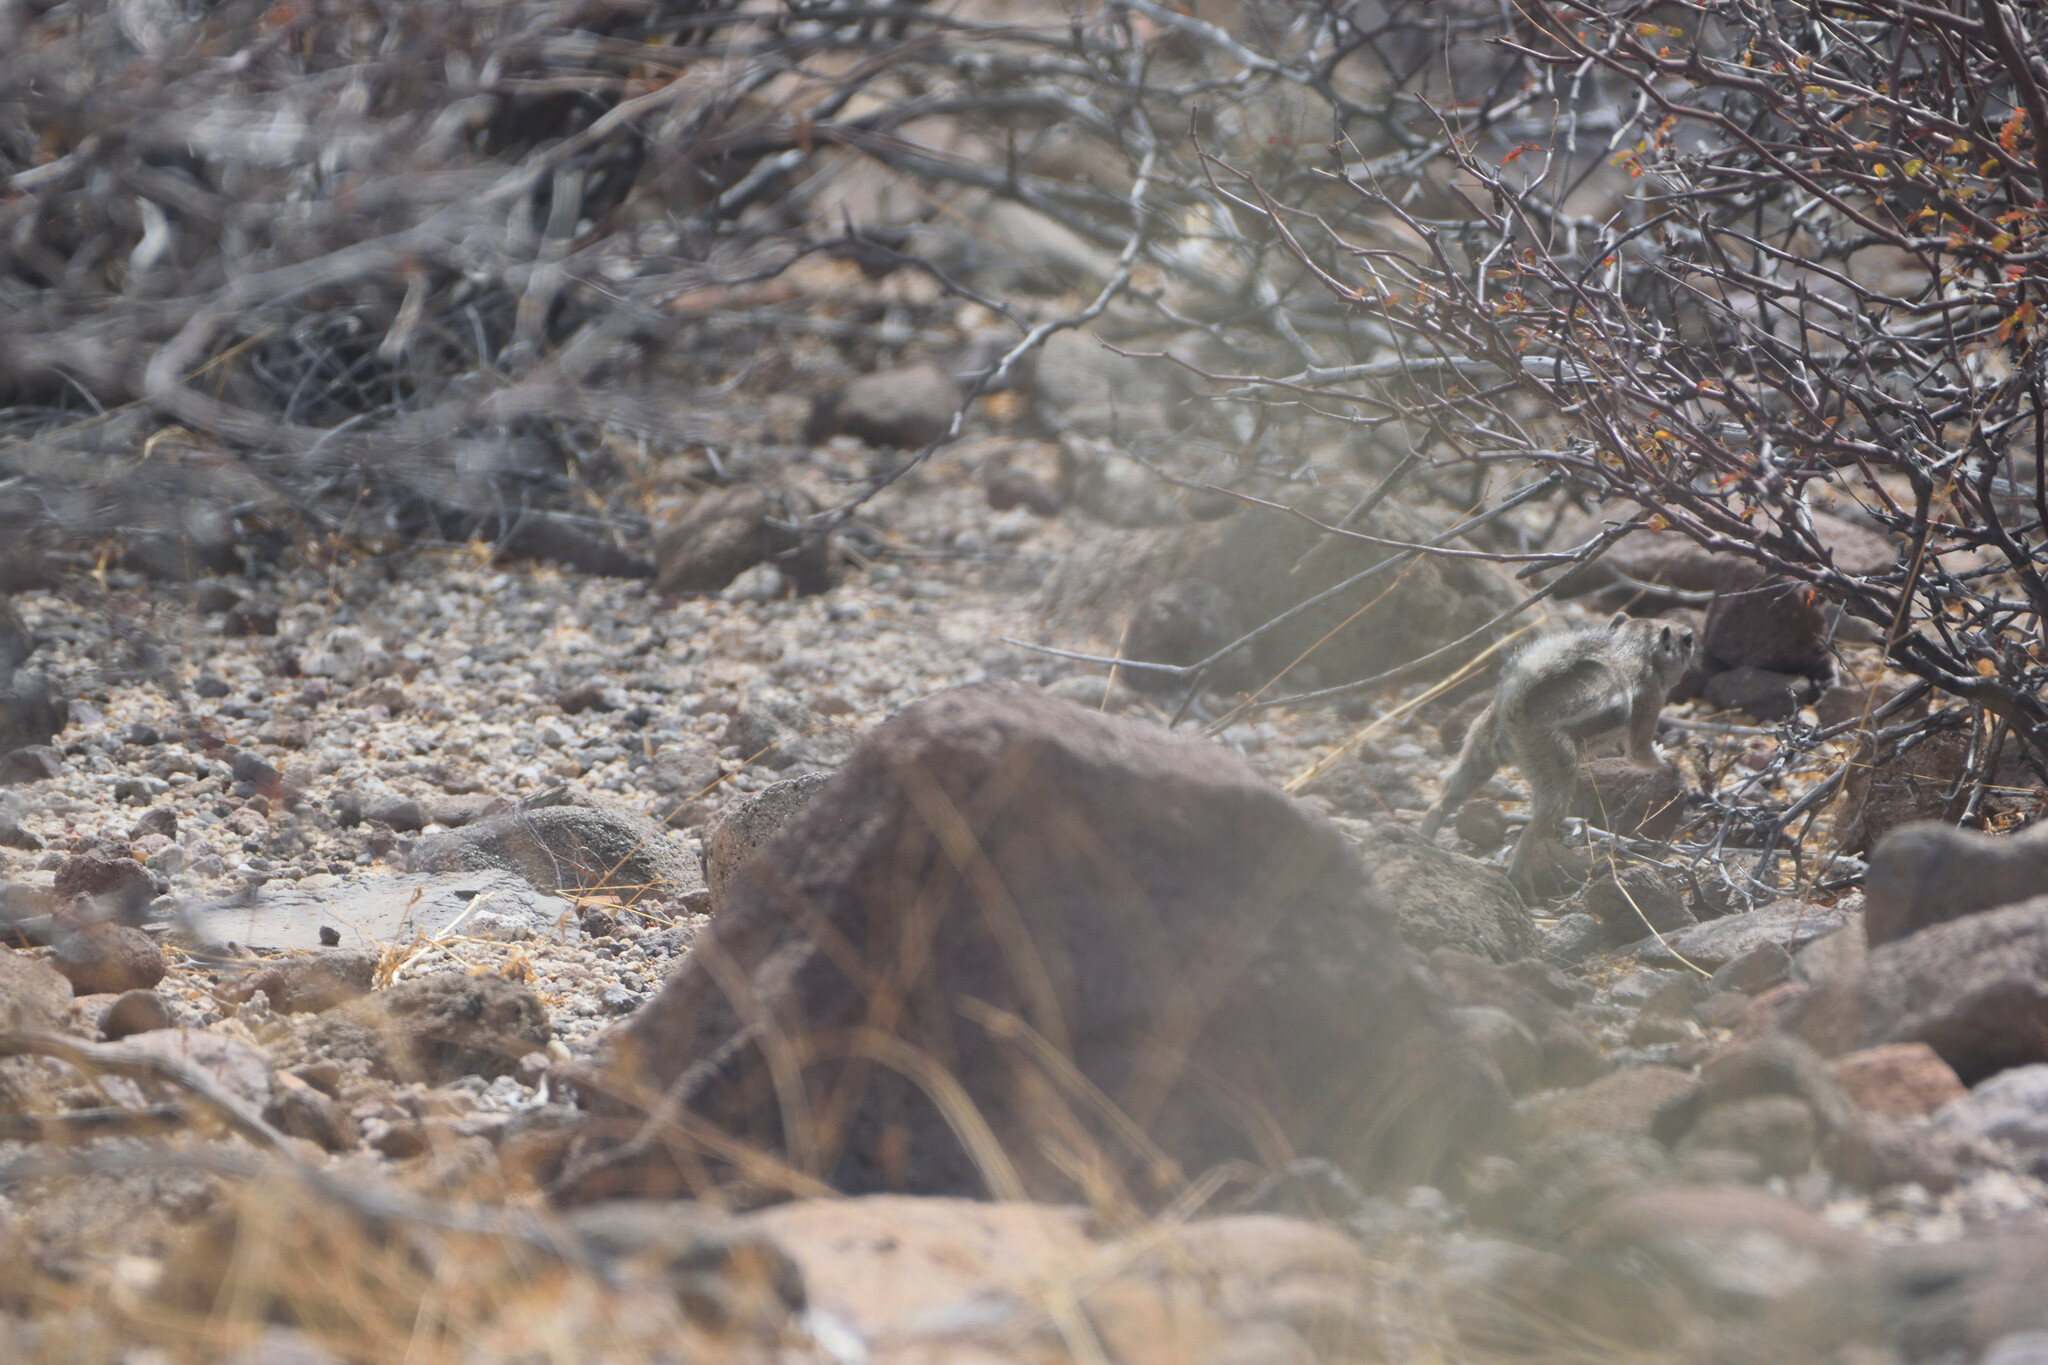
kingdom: Animalia
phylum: Chordata
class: Mammalia
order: Rodentia
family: Sciuridae
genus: Ammospermophilus
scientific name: Ammospermophilus leucurus
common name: White-tailed antelope squirrel
